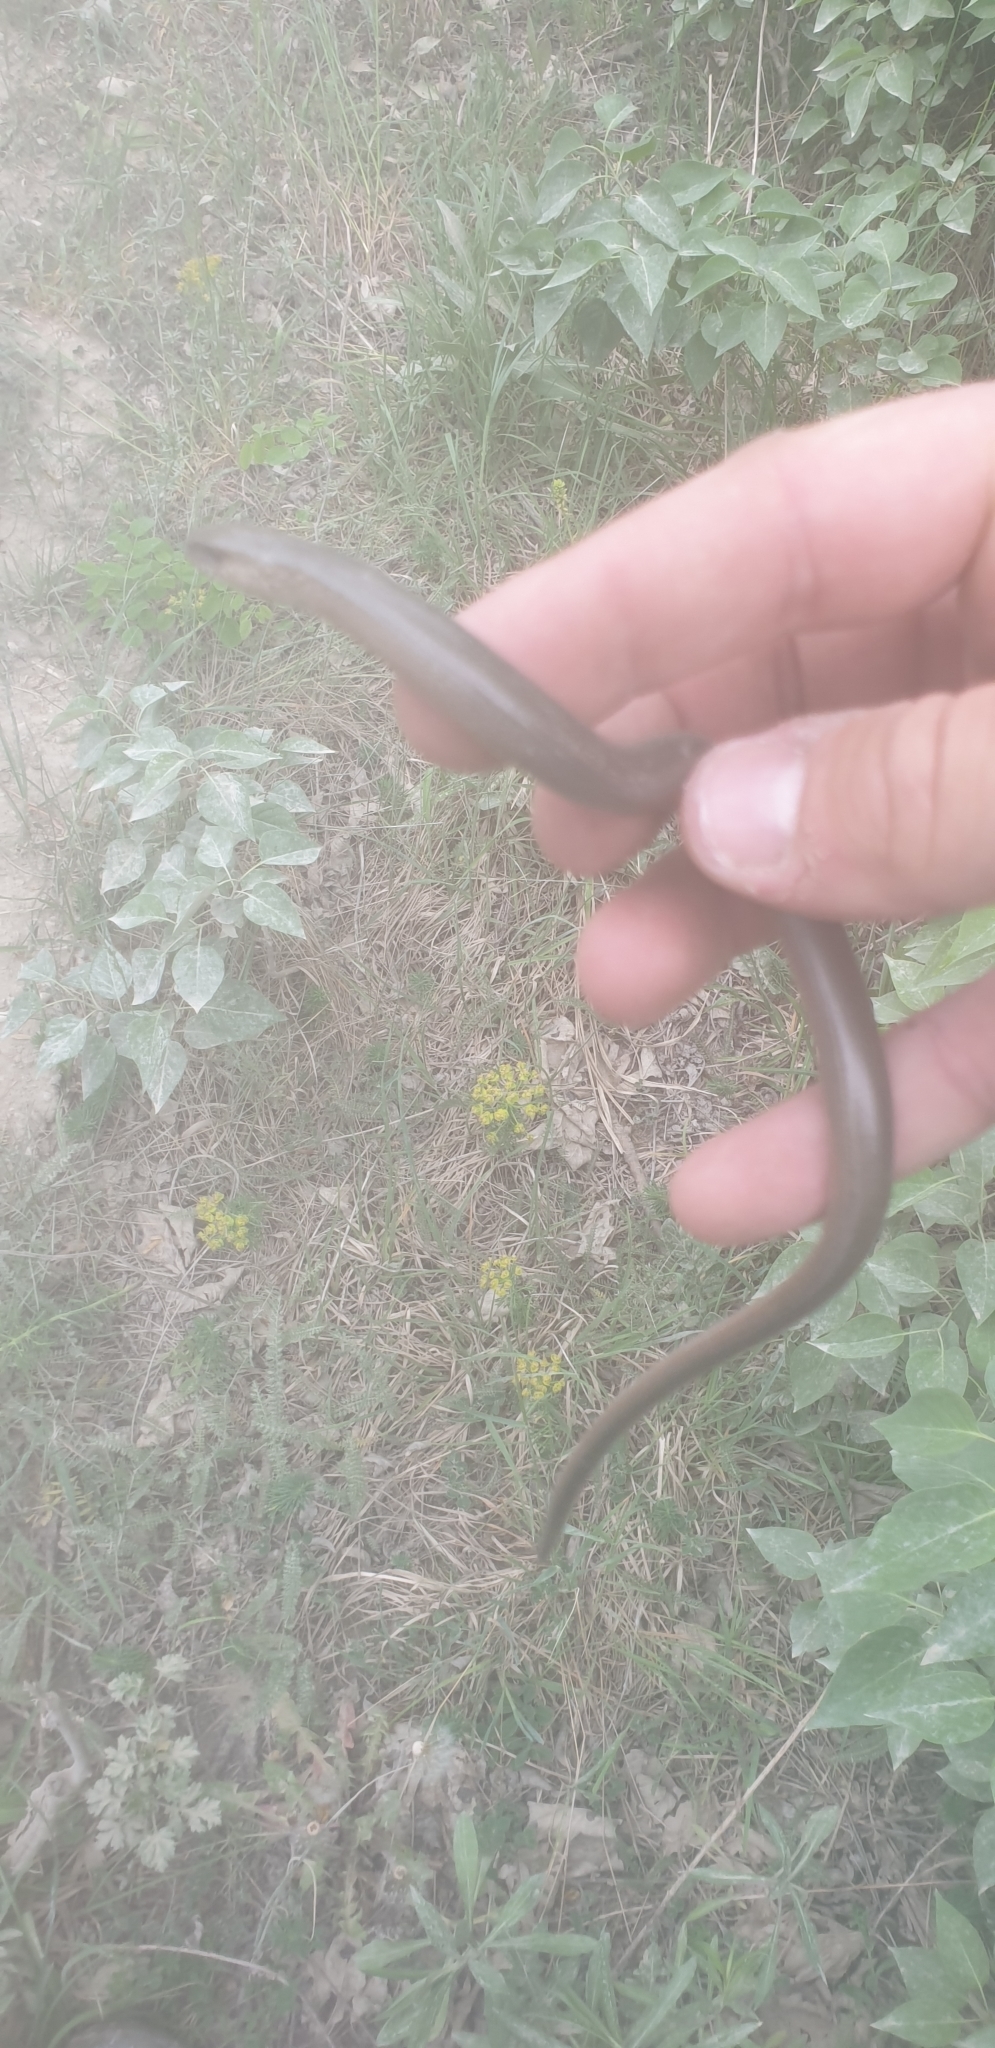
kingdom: Animalia
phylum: Chordata
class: Squamata
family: Anguidae
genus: Anguis
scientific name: Anguis fragilis
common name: Slow worm
